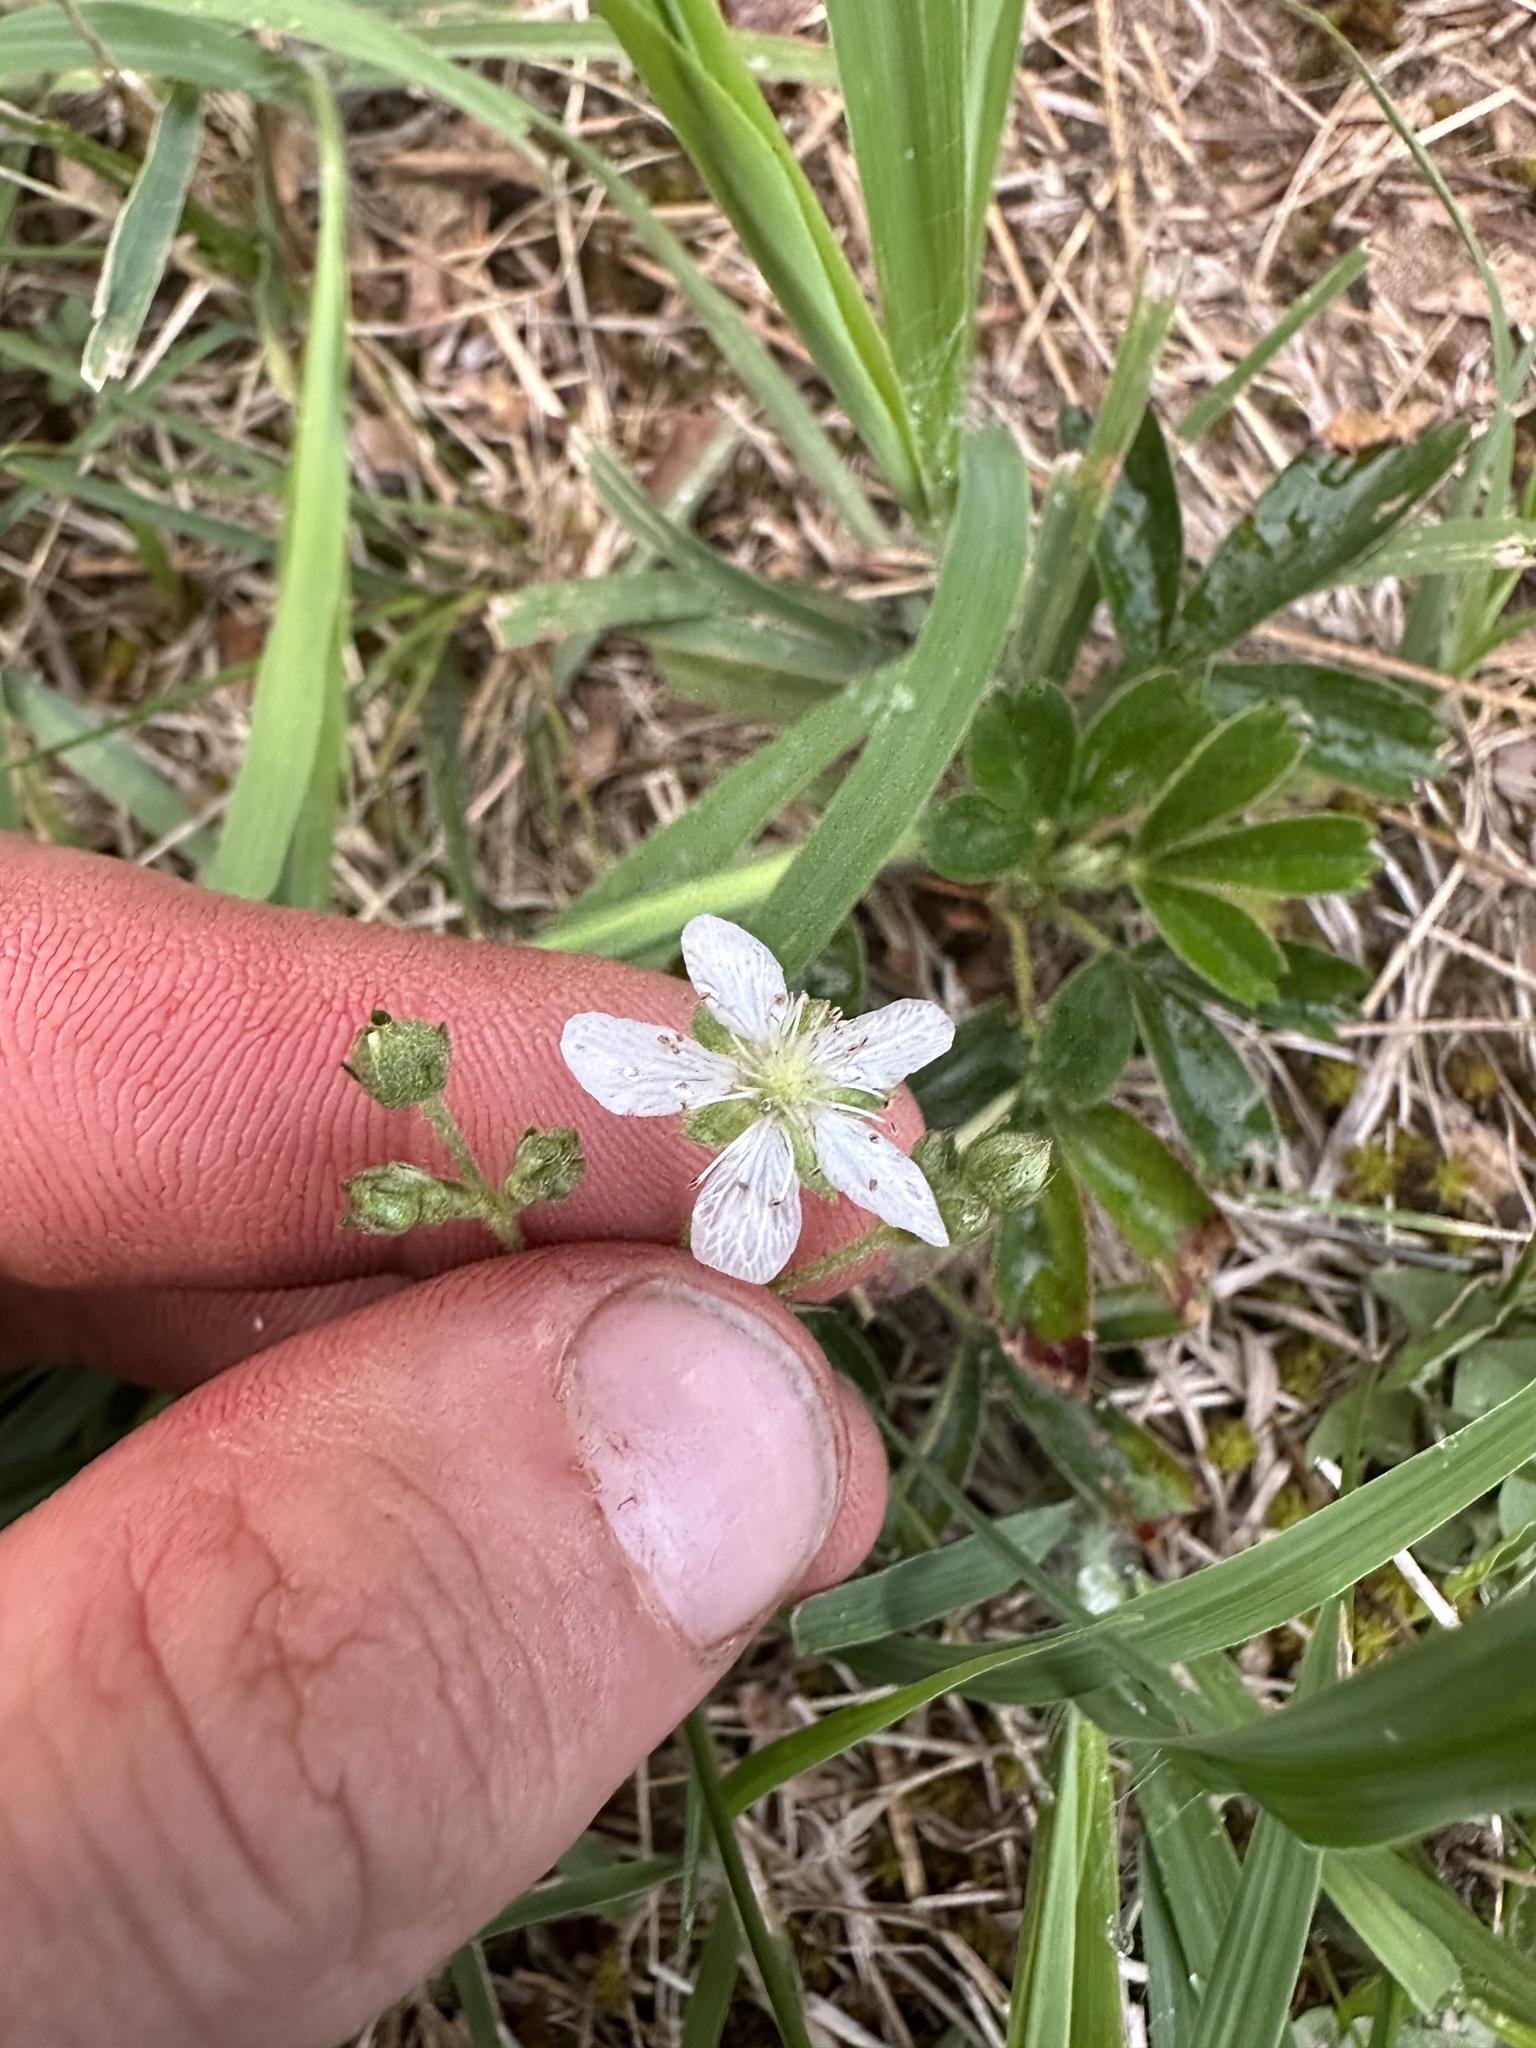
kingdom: Plantae
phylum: Tracheophyta
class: Magnoliopsida
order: Rosales
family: Rosaceae
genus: Sibbaldia
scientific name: Sibbaldia tridentata
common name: Three-toothed cinquefoil
